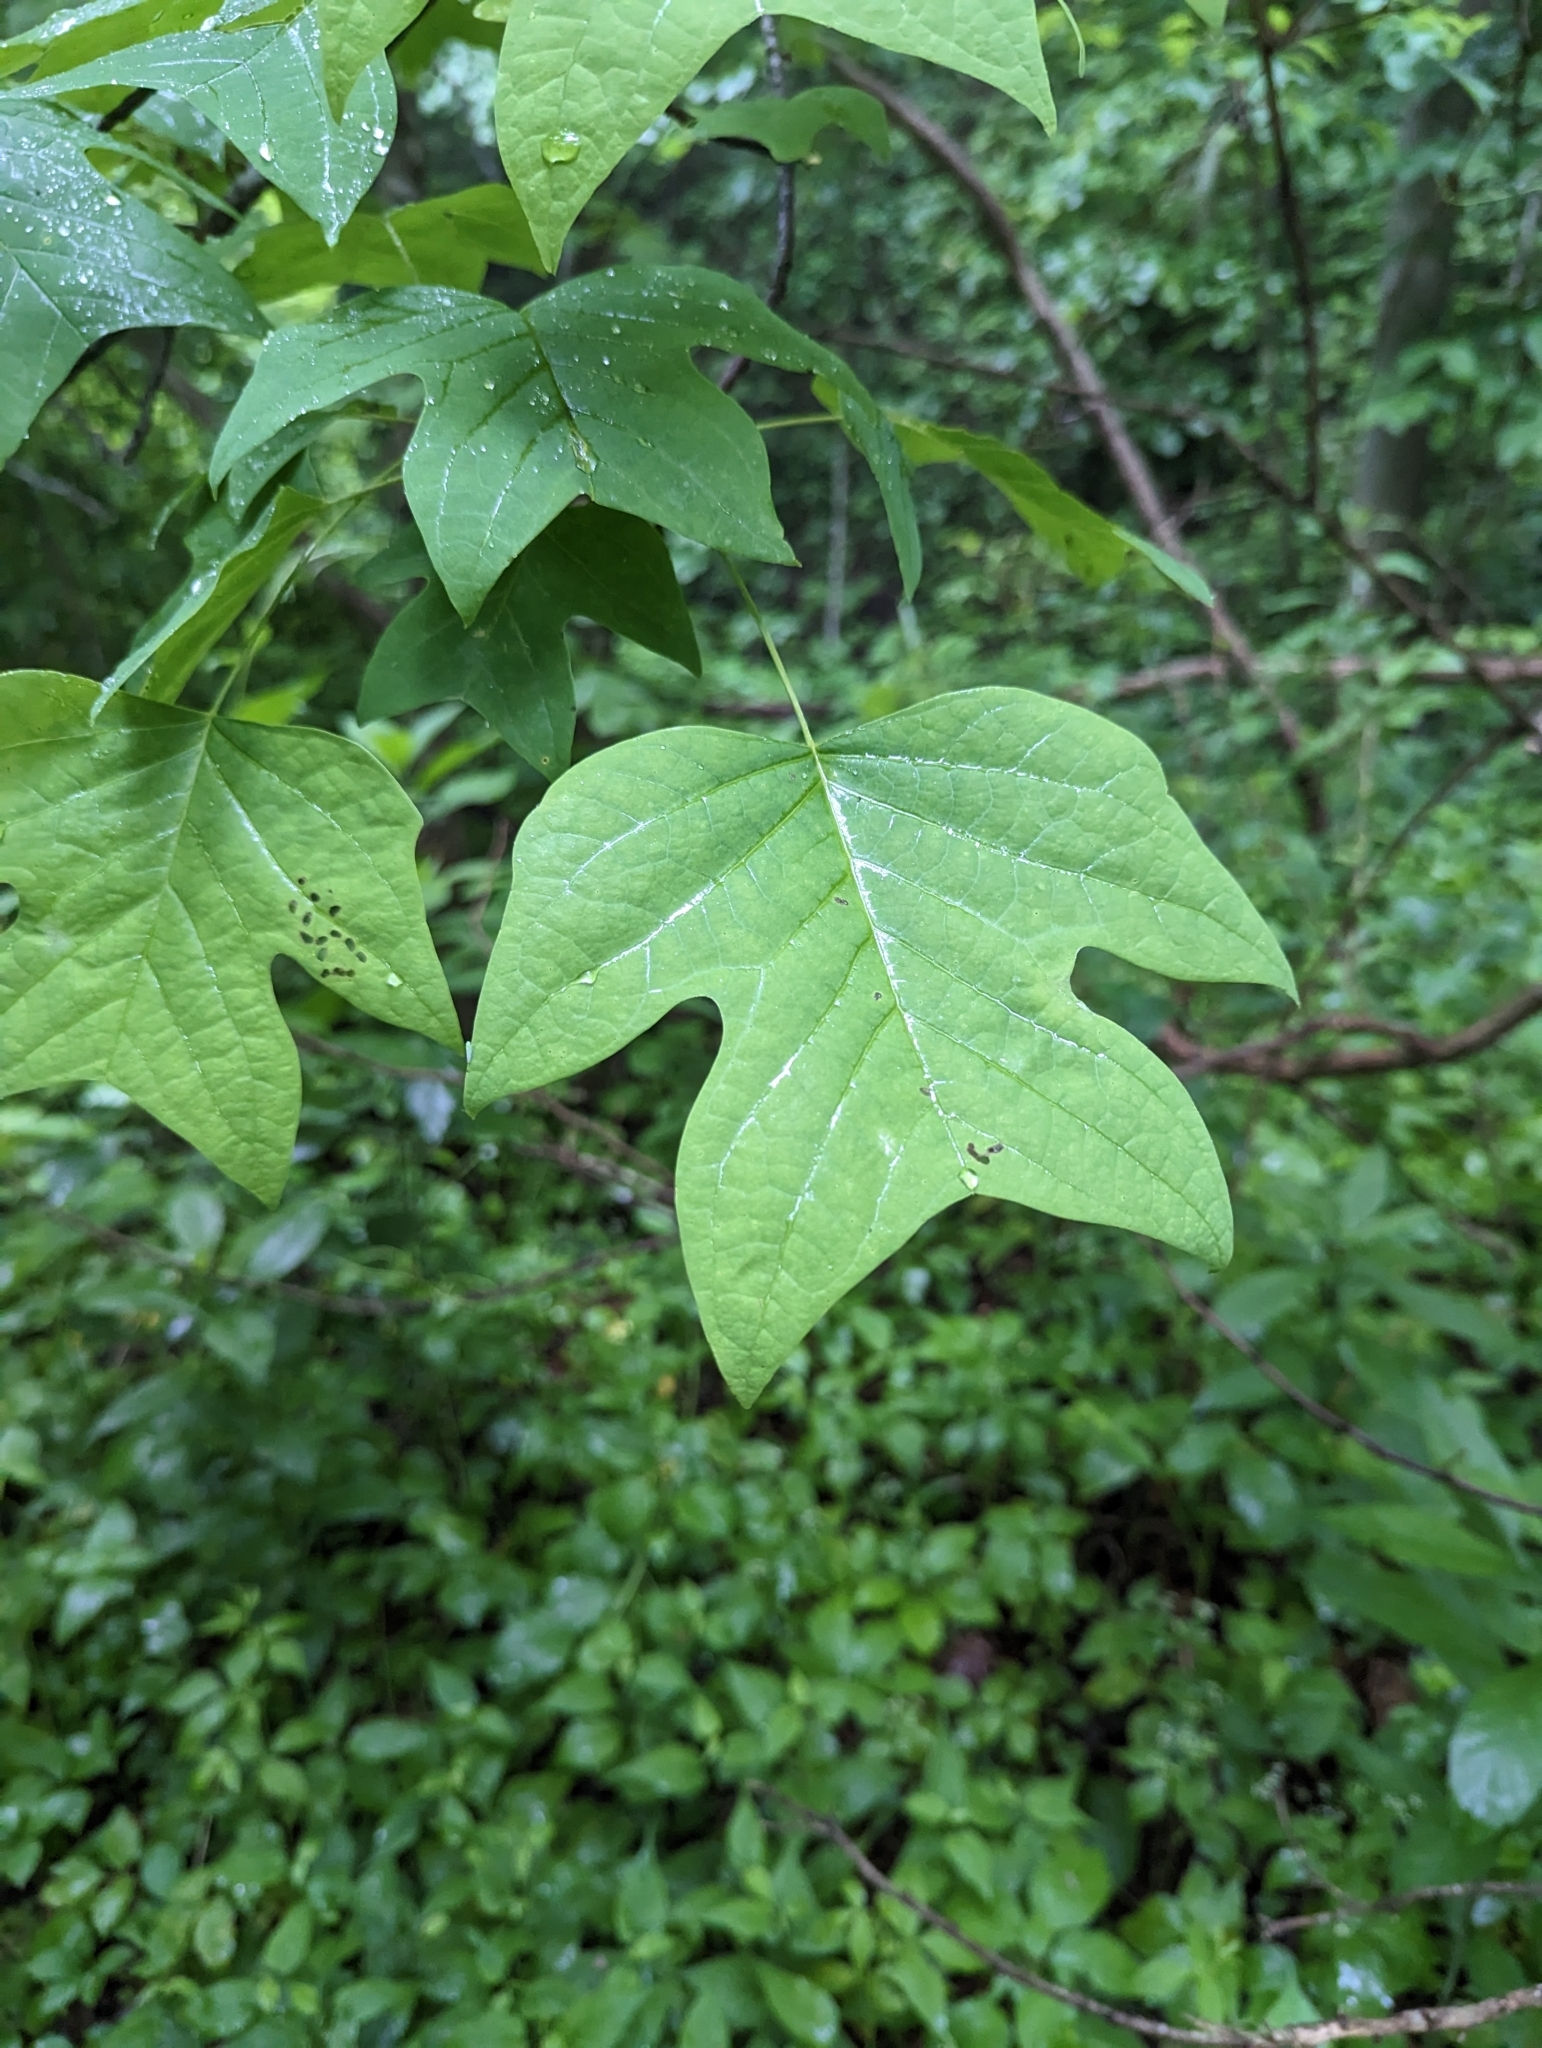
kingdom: Plantae
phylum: Tracheophyta
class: Magnoliopsida
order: Magnoliales
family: Magnoliaceae
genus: Liriodendron
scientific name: Liriodendron tulipifera
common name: Tulip tree
